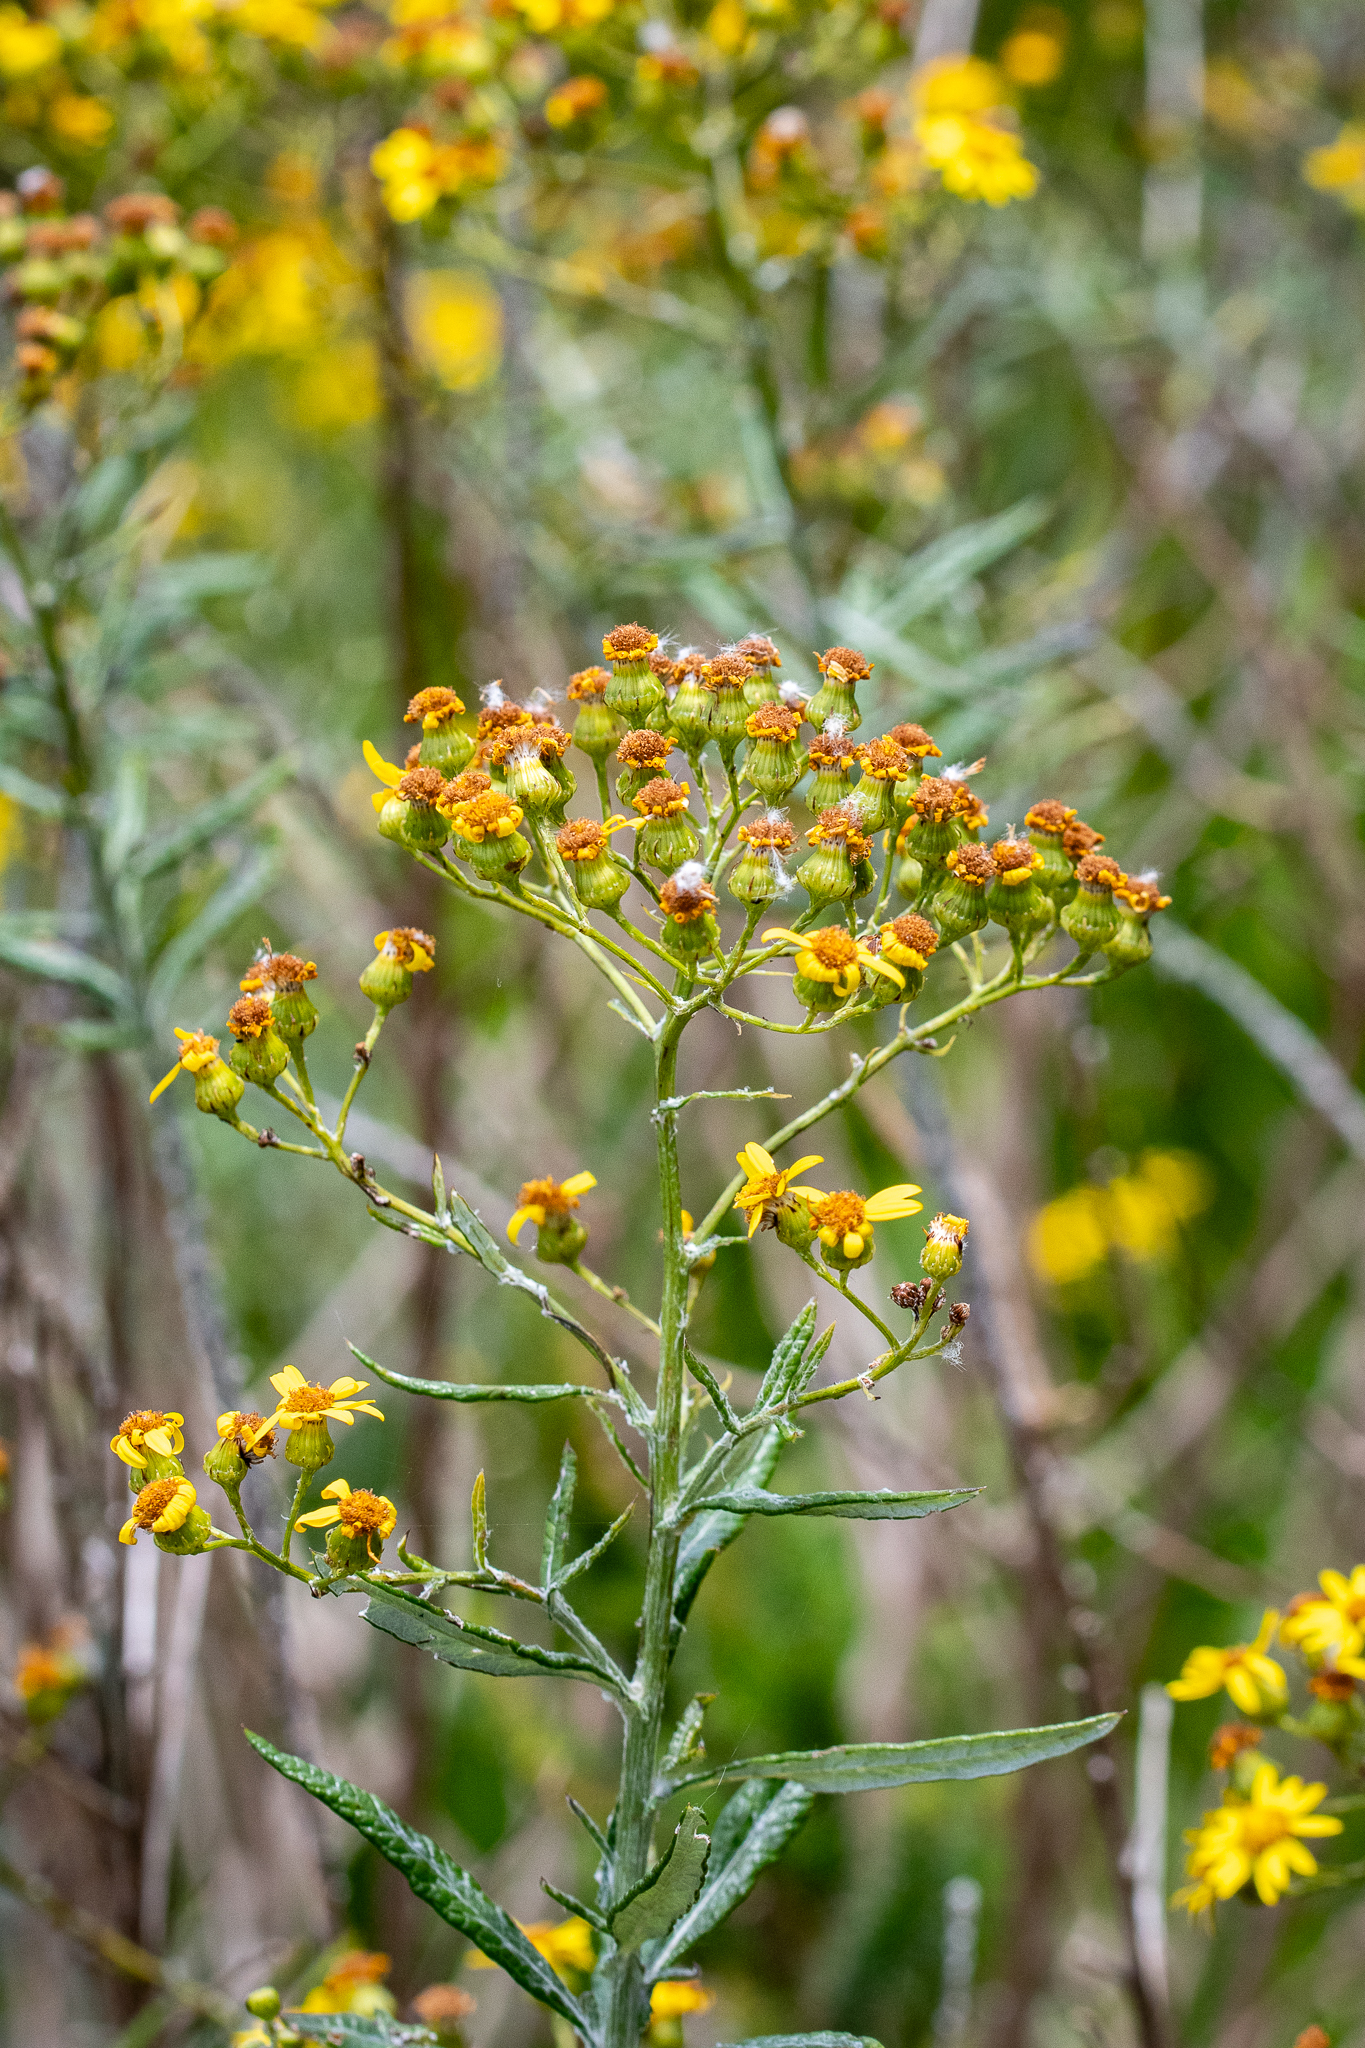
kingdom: Plantae
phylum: Tracheophyta
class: Magnoliopsida
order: Asterales
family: Asteraceae
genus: Senecio
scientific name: Senecio pterophorus
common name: Shoddy ragwort
